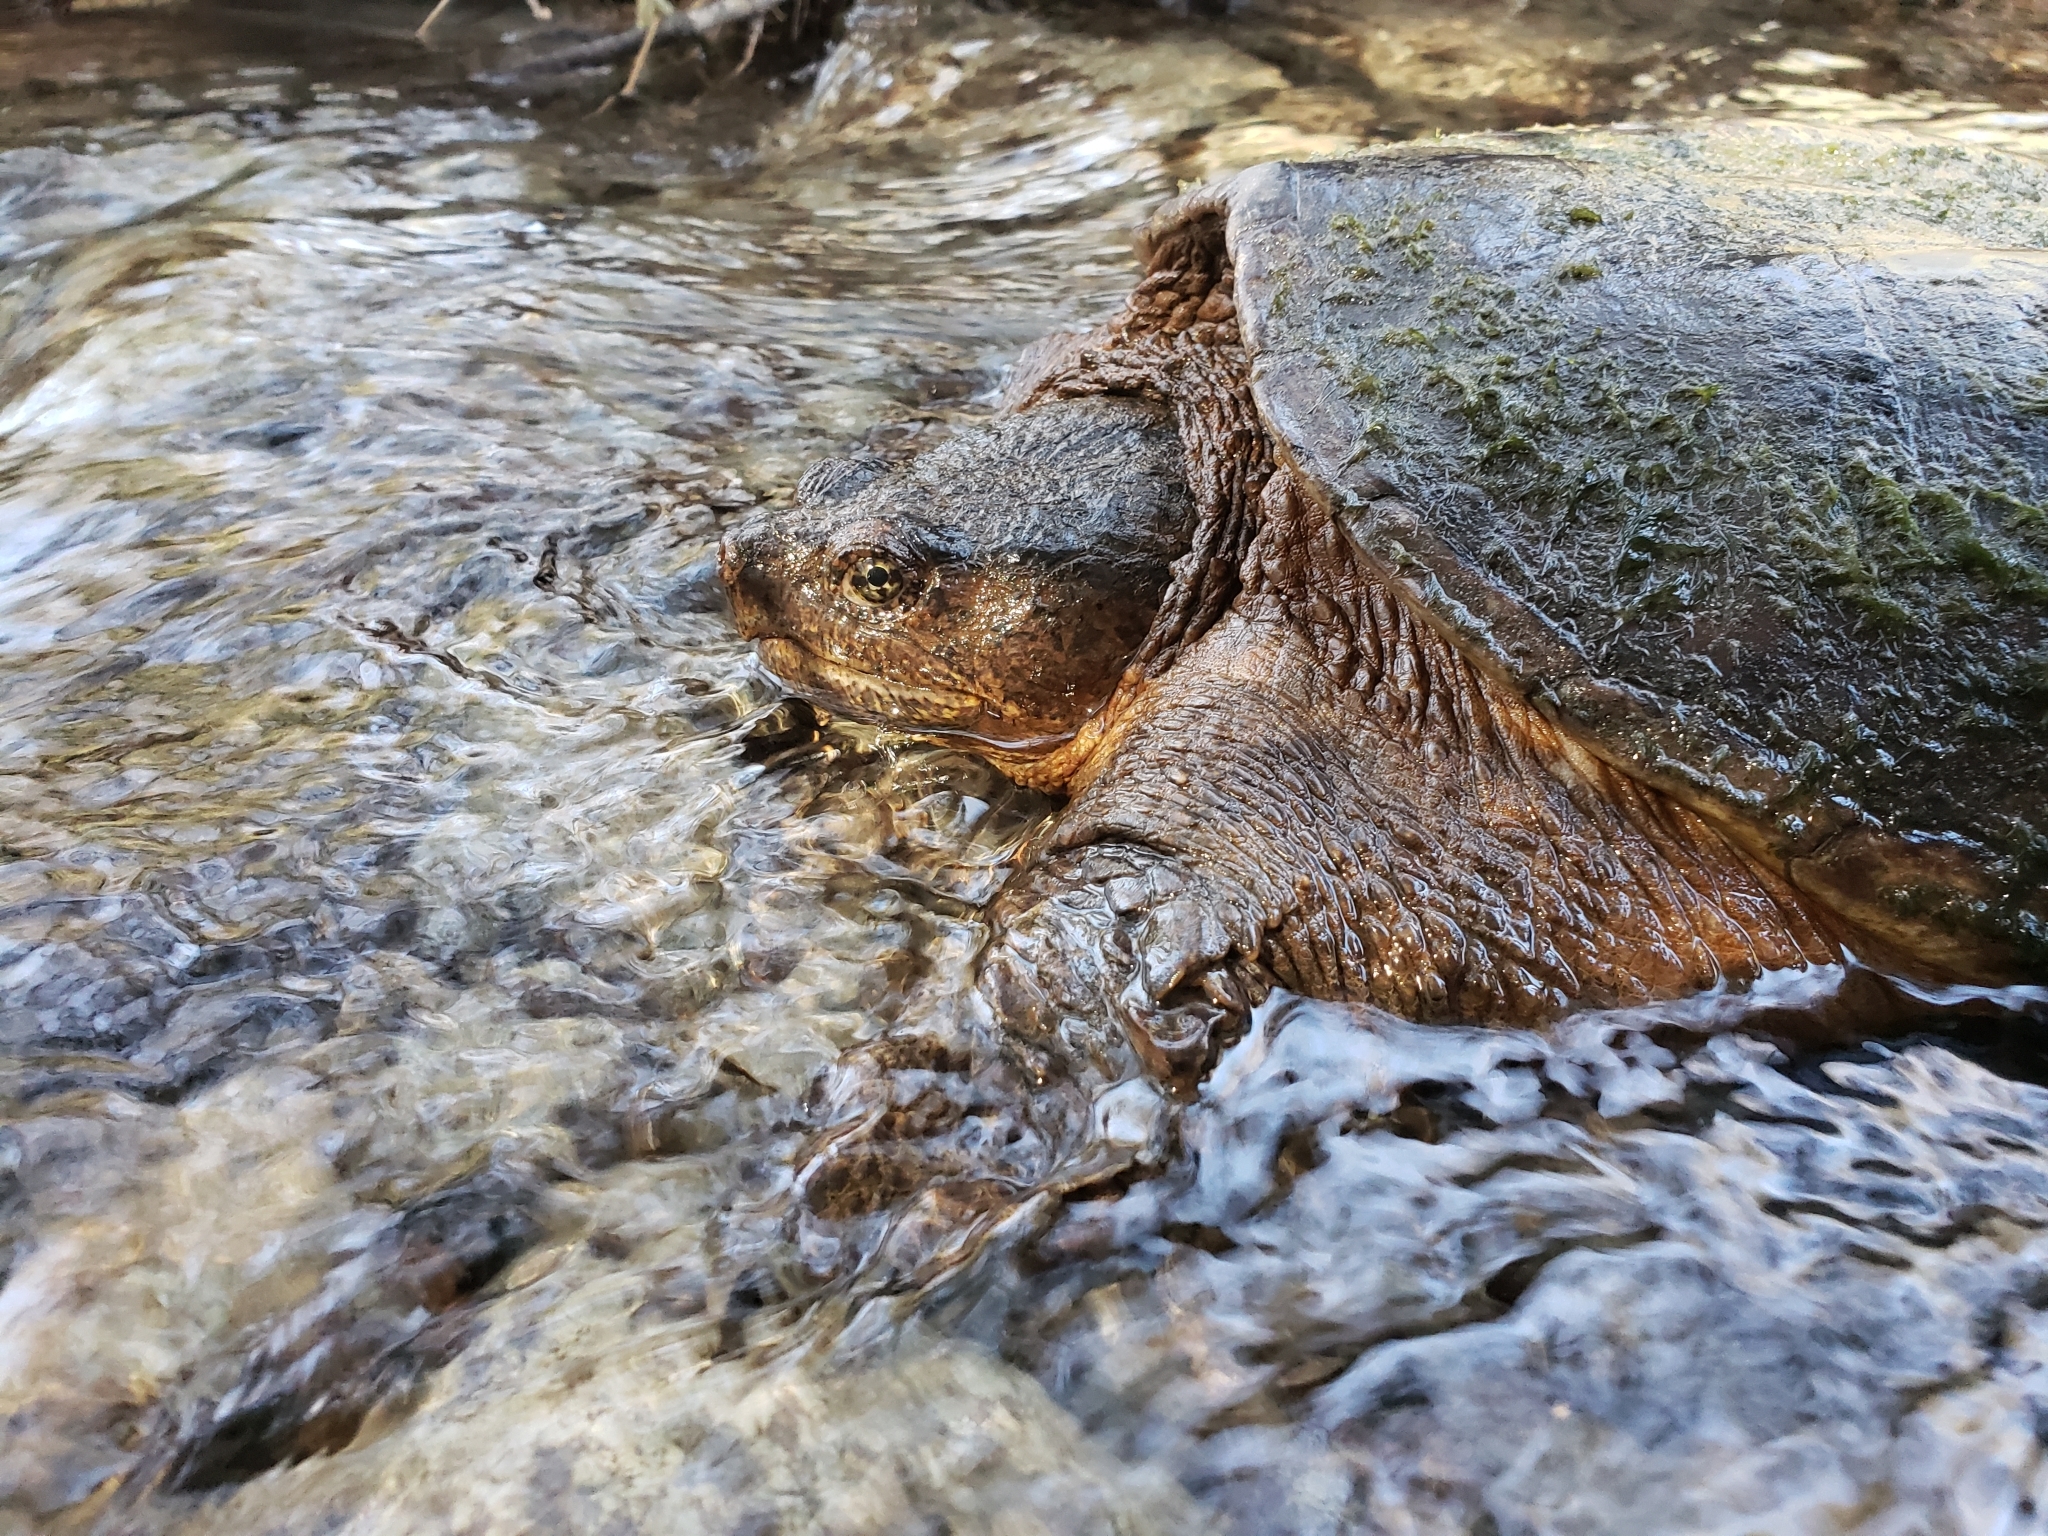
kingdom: Animalia
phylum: Chordata
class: Testudines
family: Chelydridae
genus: Chelydra
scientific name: Chelydra serpentina
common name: Common snapping turtle
